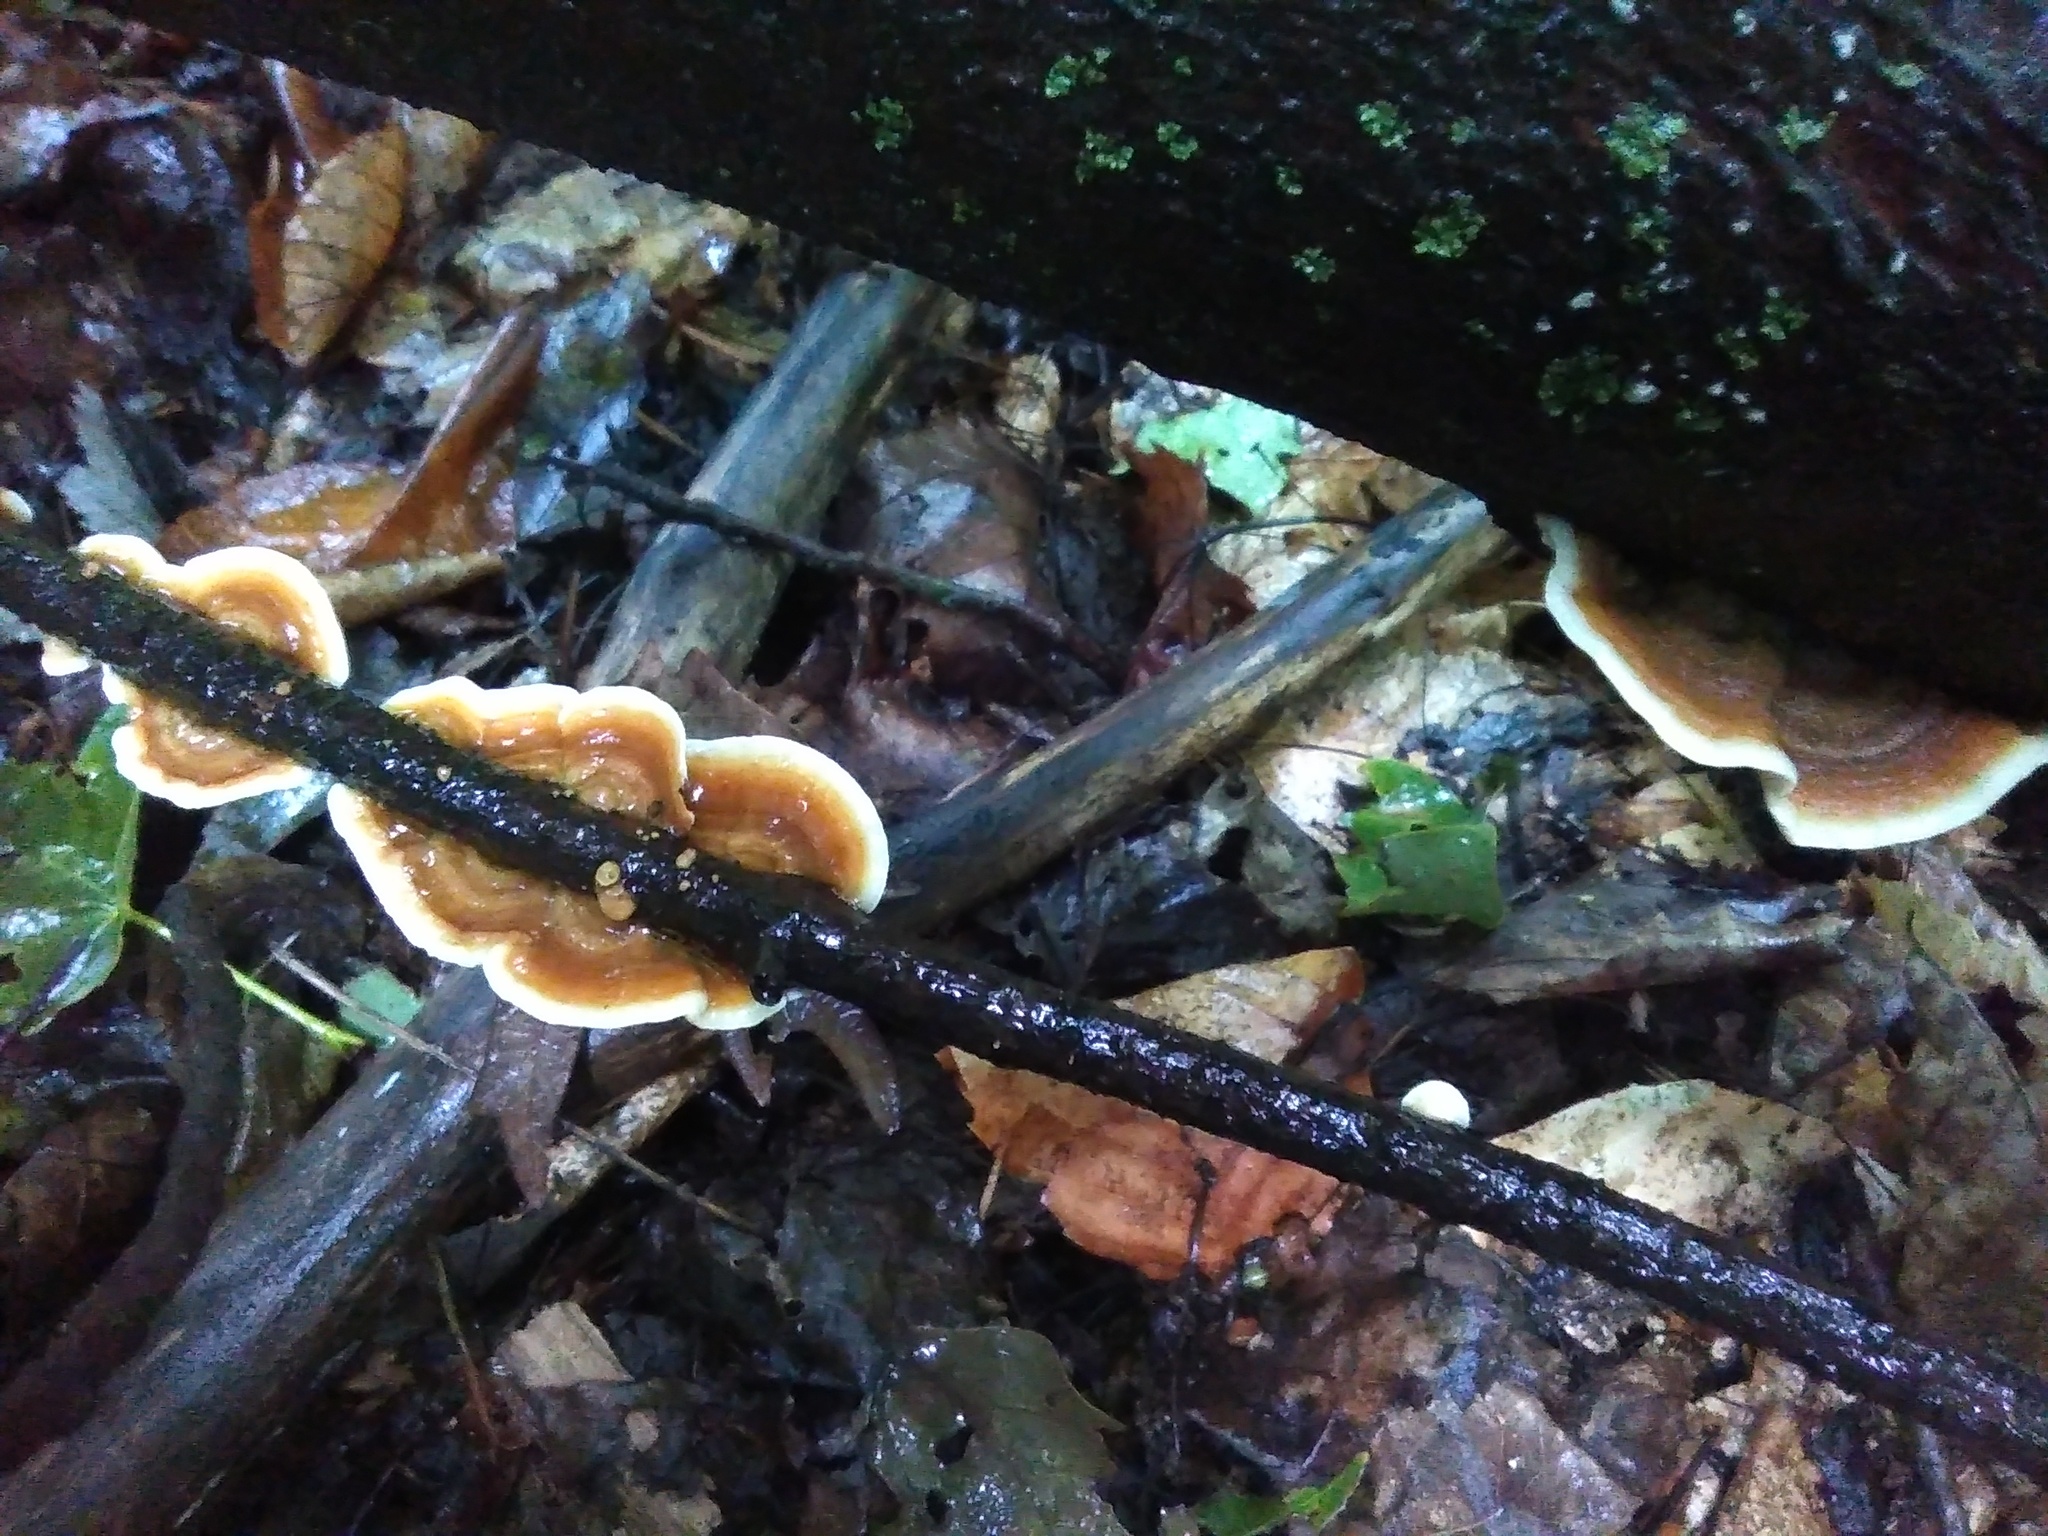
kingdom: Fungi
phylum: Basidiomycota
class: Agaricomycetes
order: Russulales
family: Stereaceae
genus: Stereum
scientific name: Stereum hirsutum
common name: Hairy curtain crust
